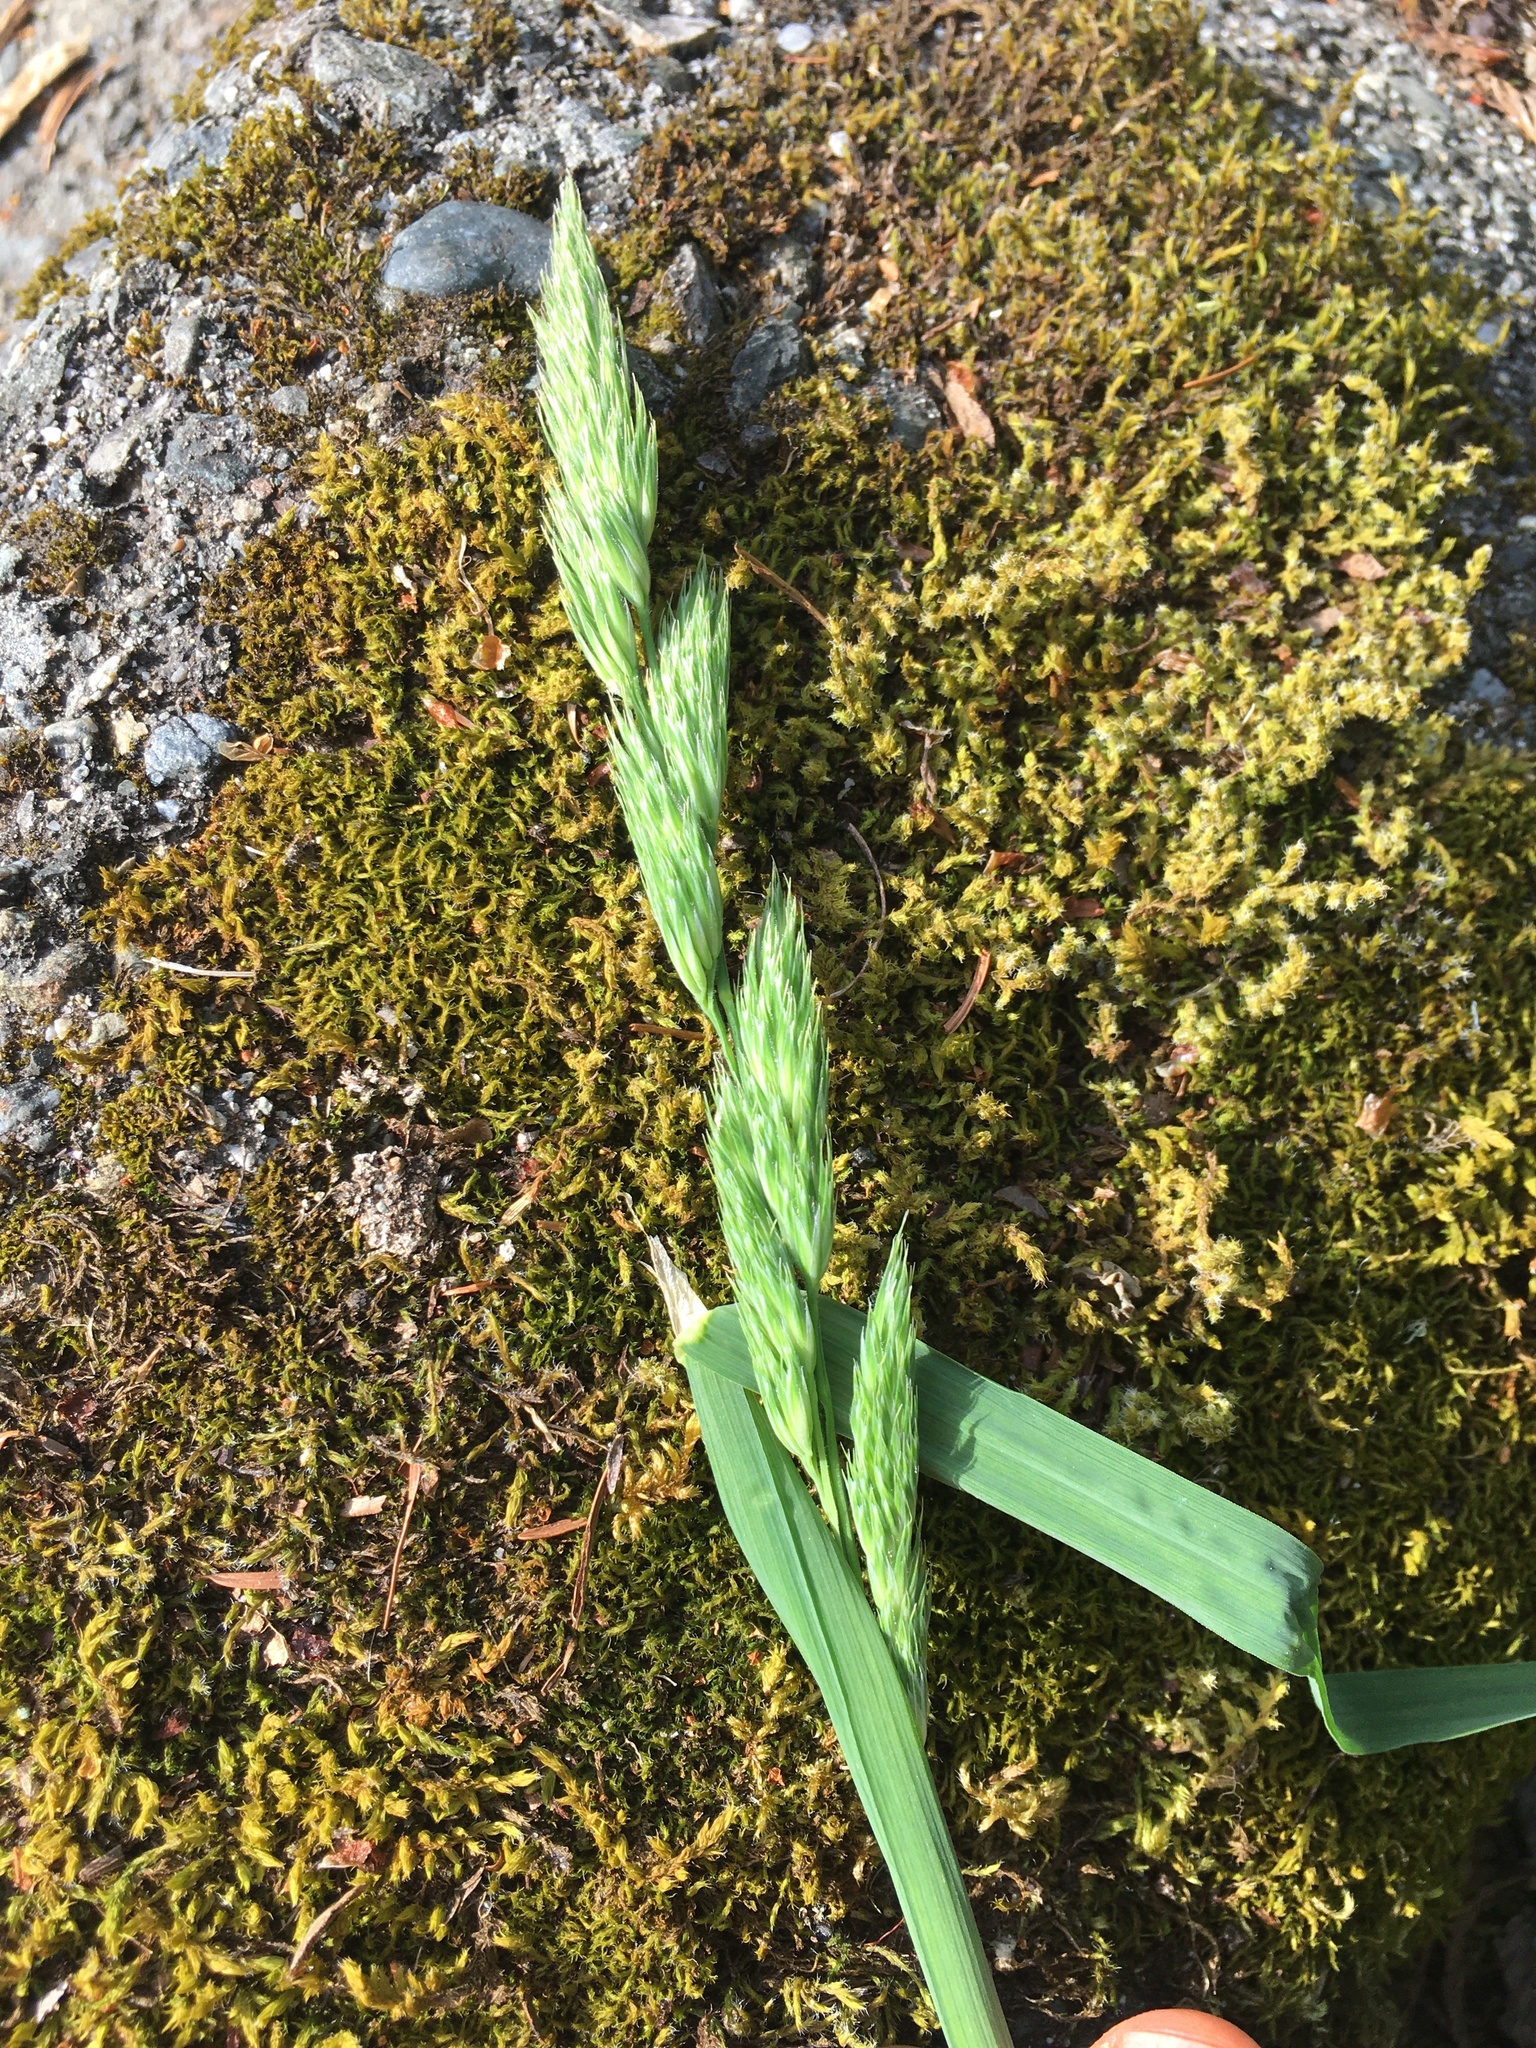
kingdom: Plantae
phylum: Tracheophyta
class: Liliopsida
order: Poales
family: Poaceae
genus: Dactylis
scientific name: Dactylis glomerata
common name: Orchardgrass
